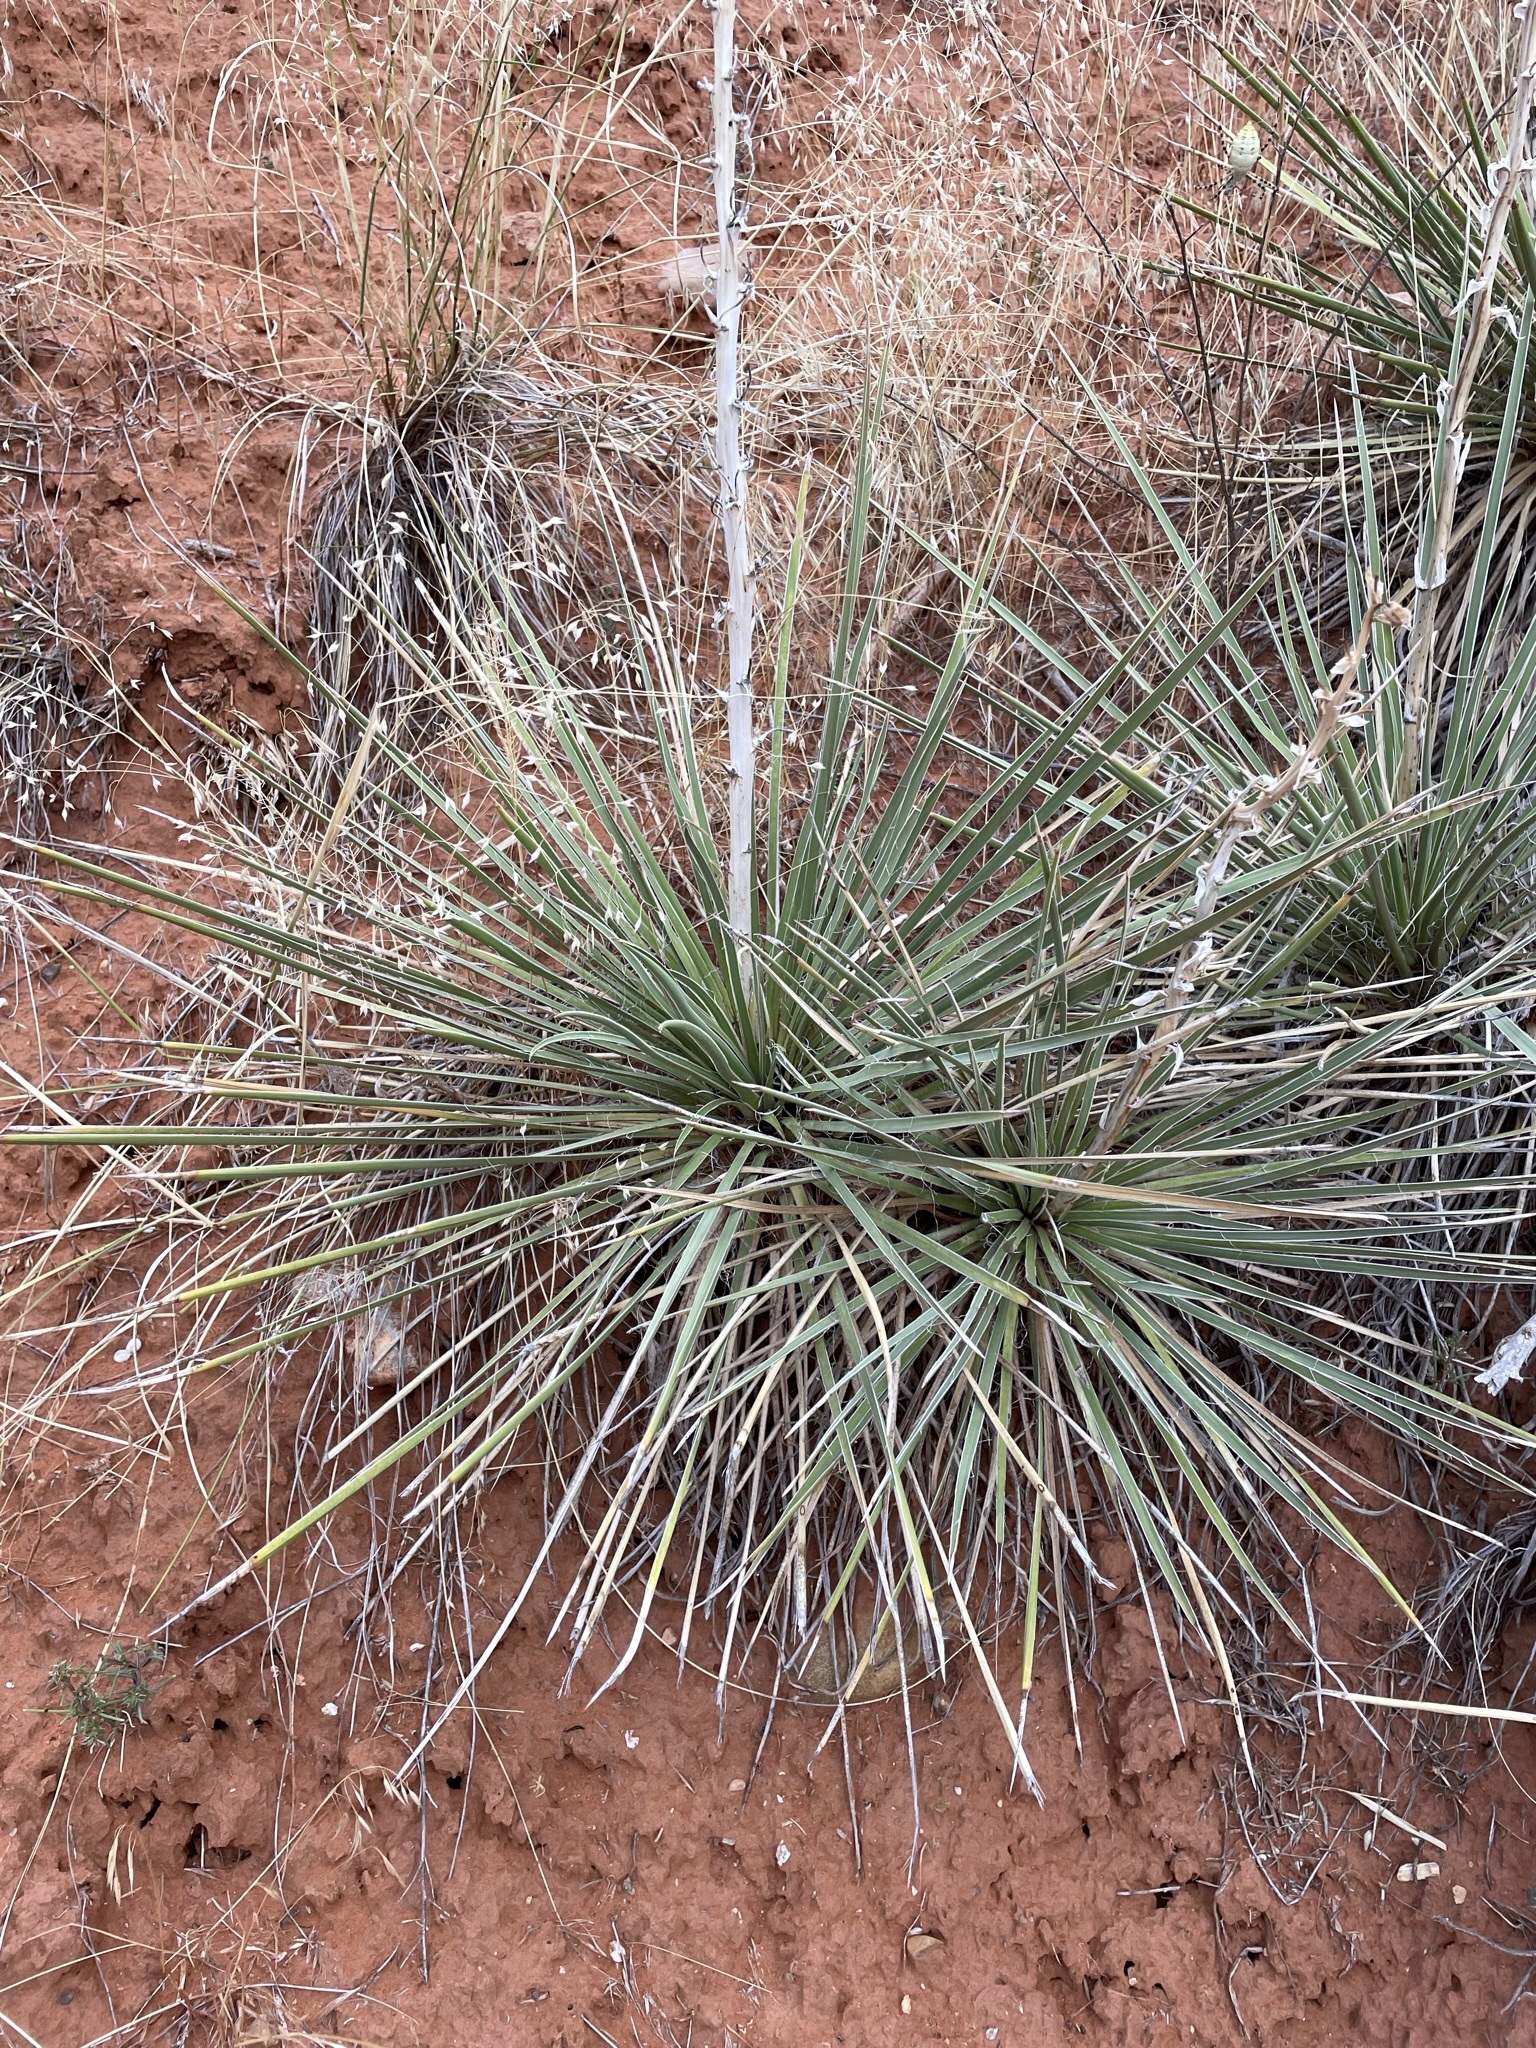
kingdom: Plantae
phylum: Tracheophyta
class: Liliopsida
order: Asparagales
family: Asparagaceae
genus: Yucca
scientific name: Yucca glauca
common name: Great plains yucca
